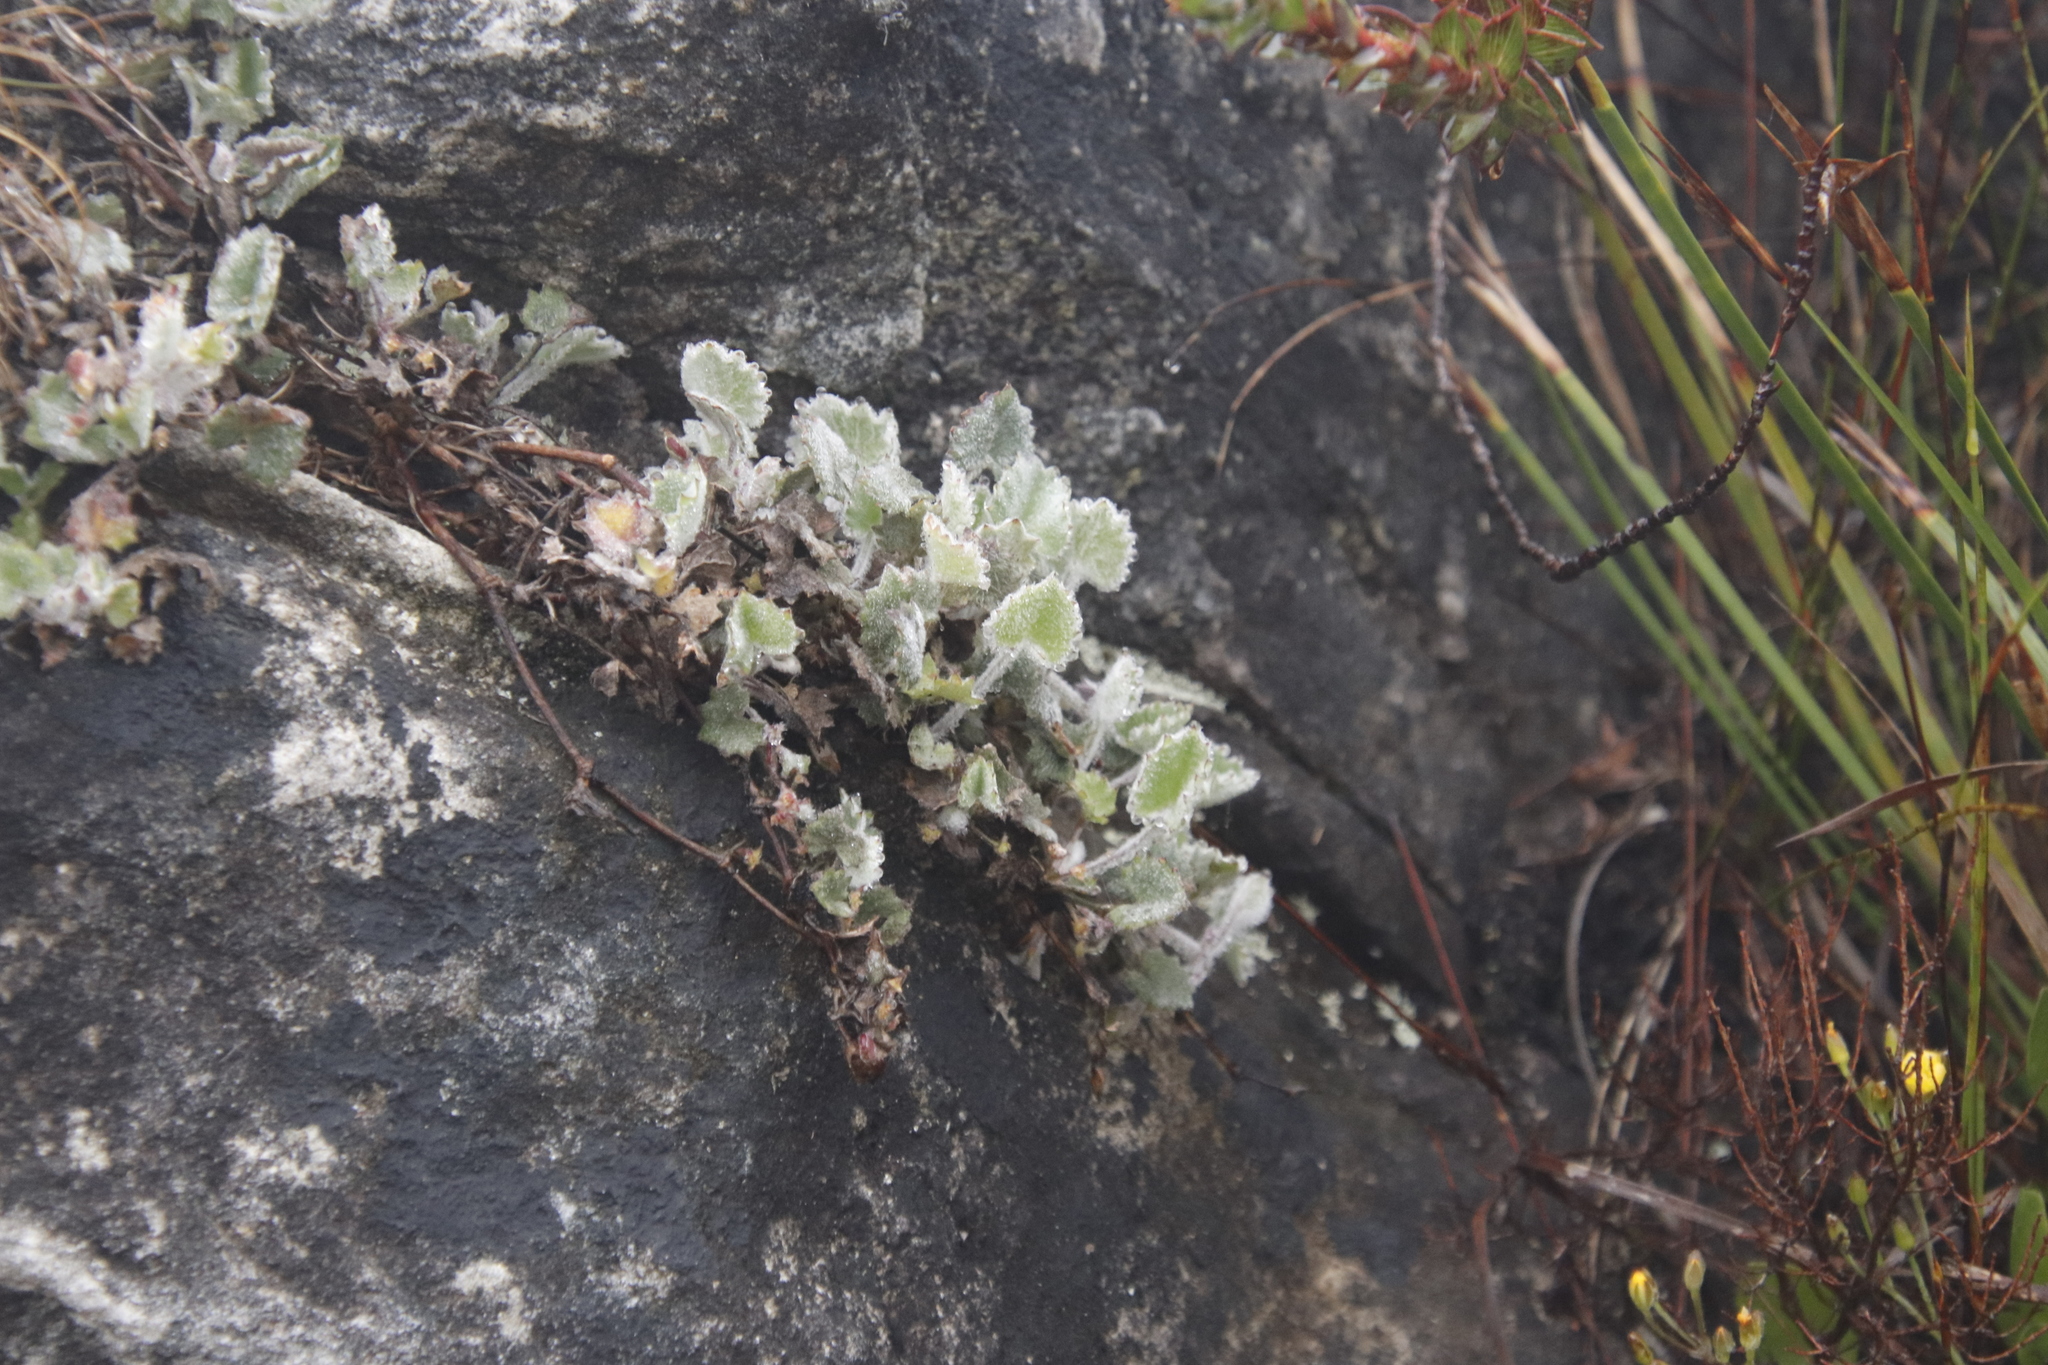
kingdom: Plantae
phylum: Tracheophyta
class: Magnoliopsida
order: Apiales
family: Apiaceae
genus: Centella
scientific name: Centella flexuosa
